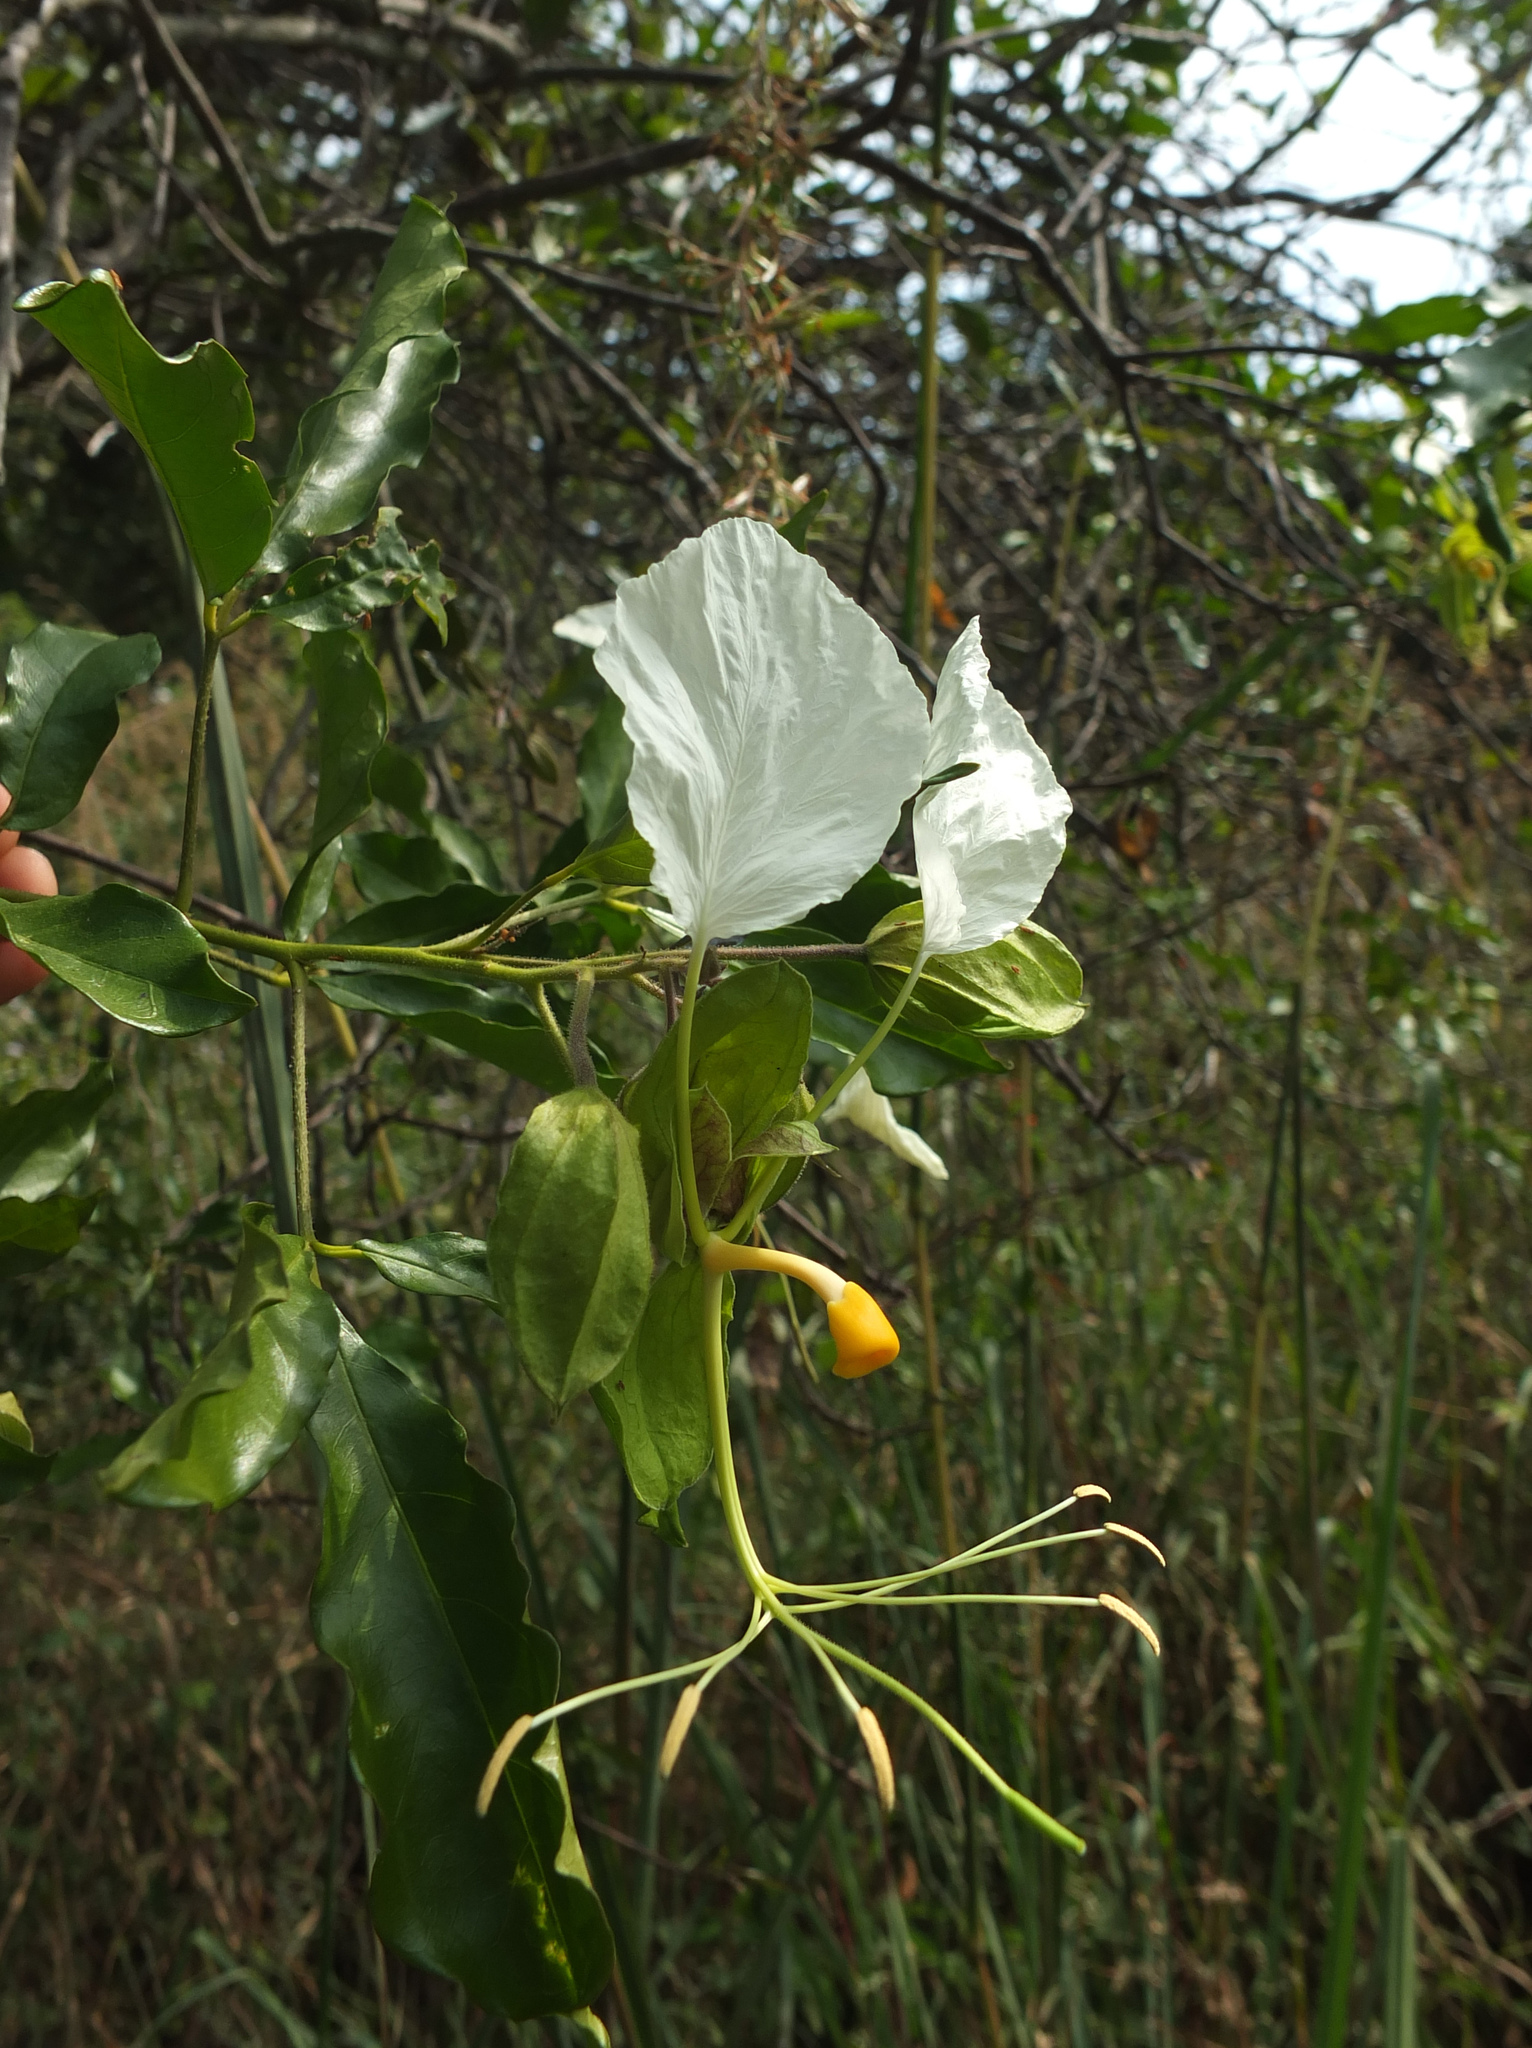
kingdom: Plantae
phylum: Tracheophyta
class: Magnoliopsida
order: Brassicales
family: Capparaceae
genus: Cadaba
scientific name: Cadaba trifoliata
